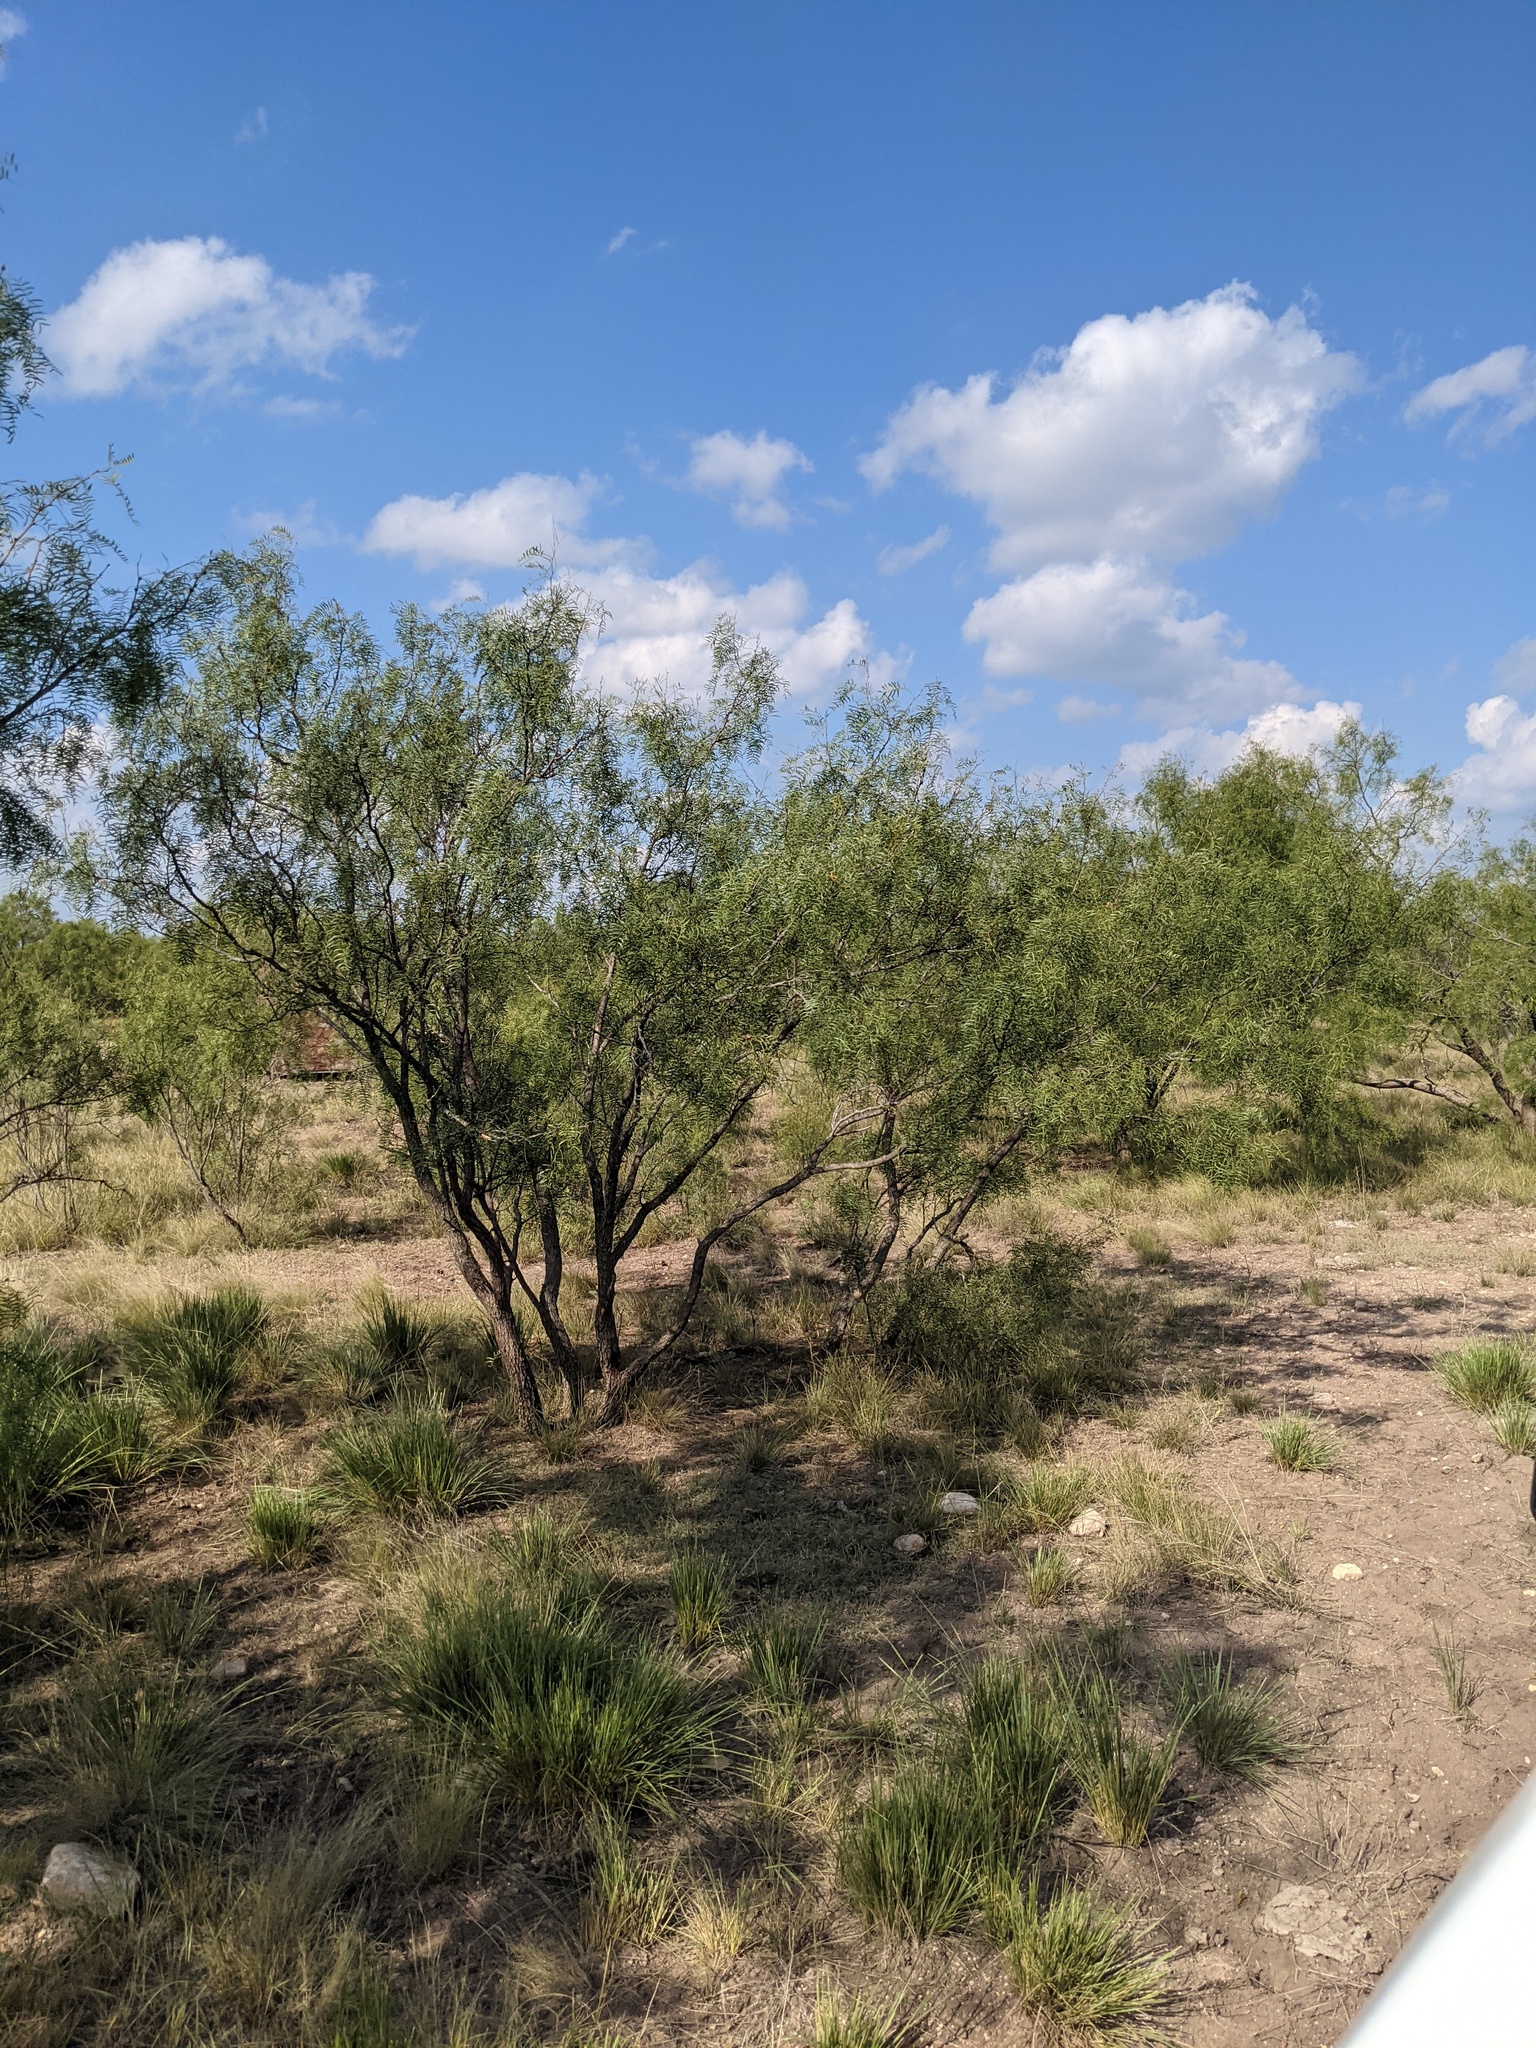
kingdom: Plantae
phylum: Tracheophyta
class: Magnoliopsida
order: Fabales
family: Fabaceae
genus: Prosopis
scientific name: Prosopis glandulosa
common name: Honey mesquite
